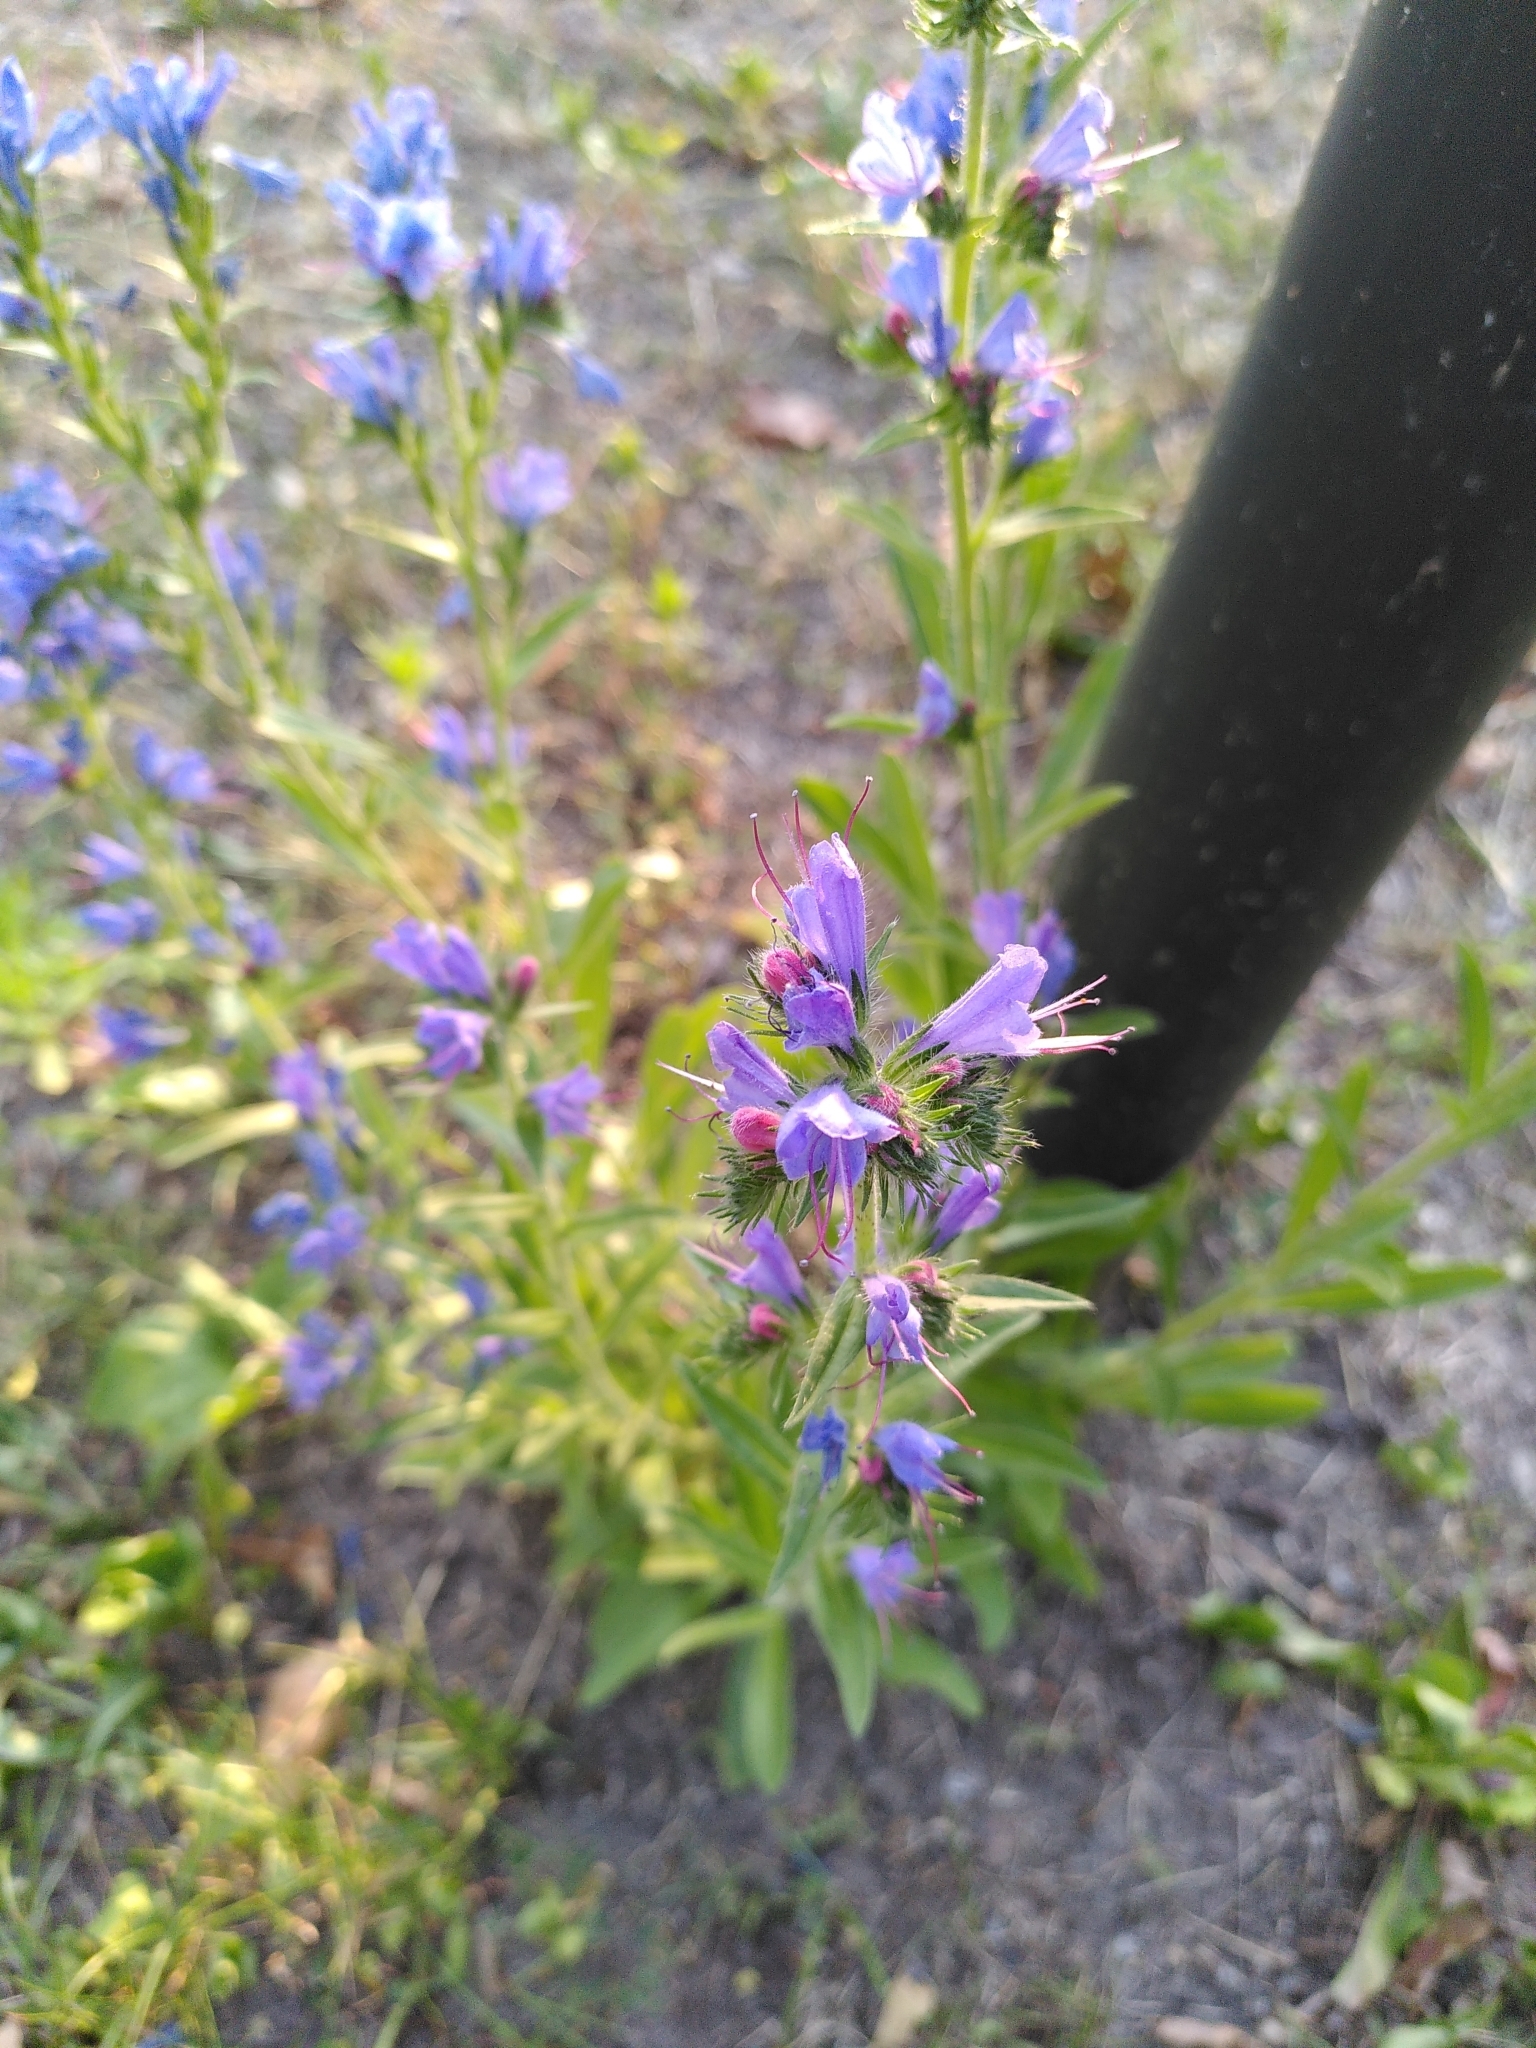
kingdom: Plantae
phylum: Tracheophyta
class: Magnoliopsida
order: Boraginales
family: Boraginaceae
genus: Echium
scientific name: Echium vulgare
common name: Common viper's bugloss
